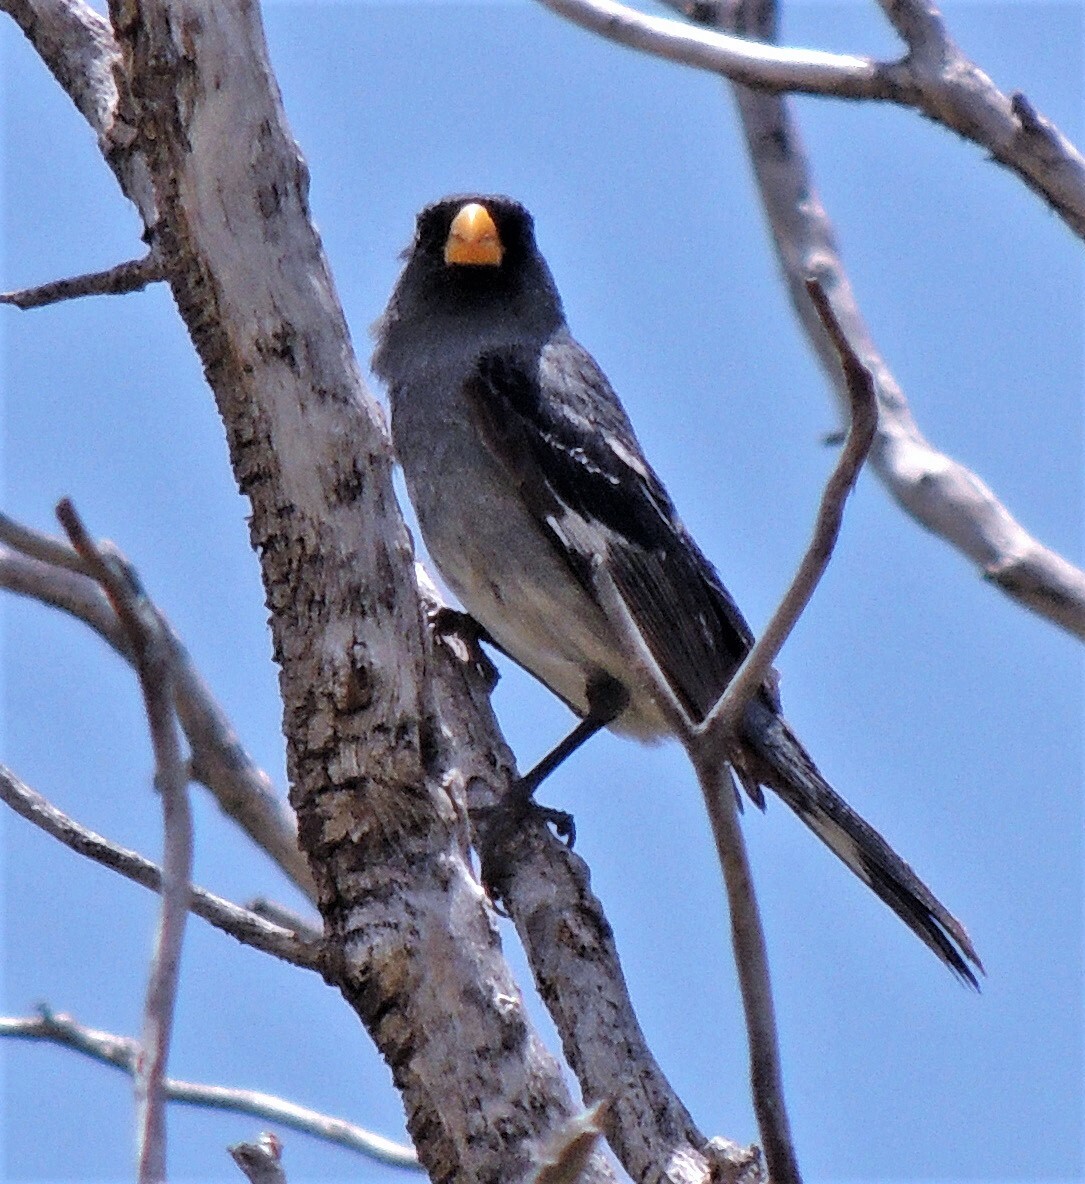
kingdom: Animalia
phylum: Chordata
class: Aves
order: Passeriformes
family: Thraupidae
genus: Catamenia
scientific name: Catamenia analis
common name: Band-tailed seedeater
